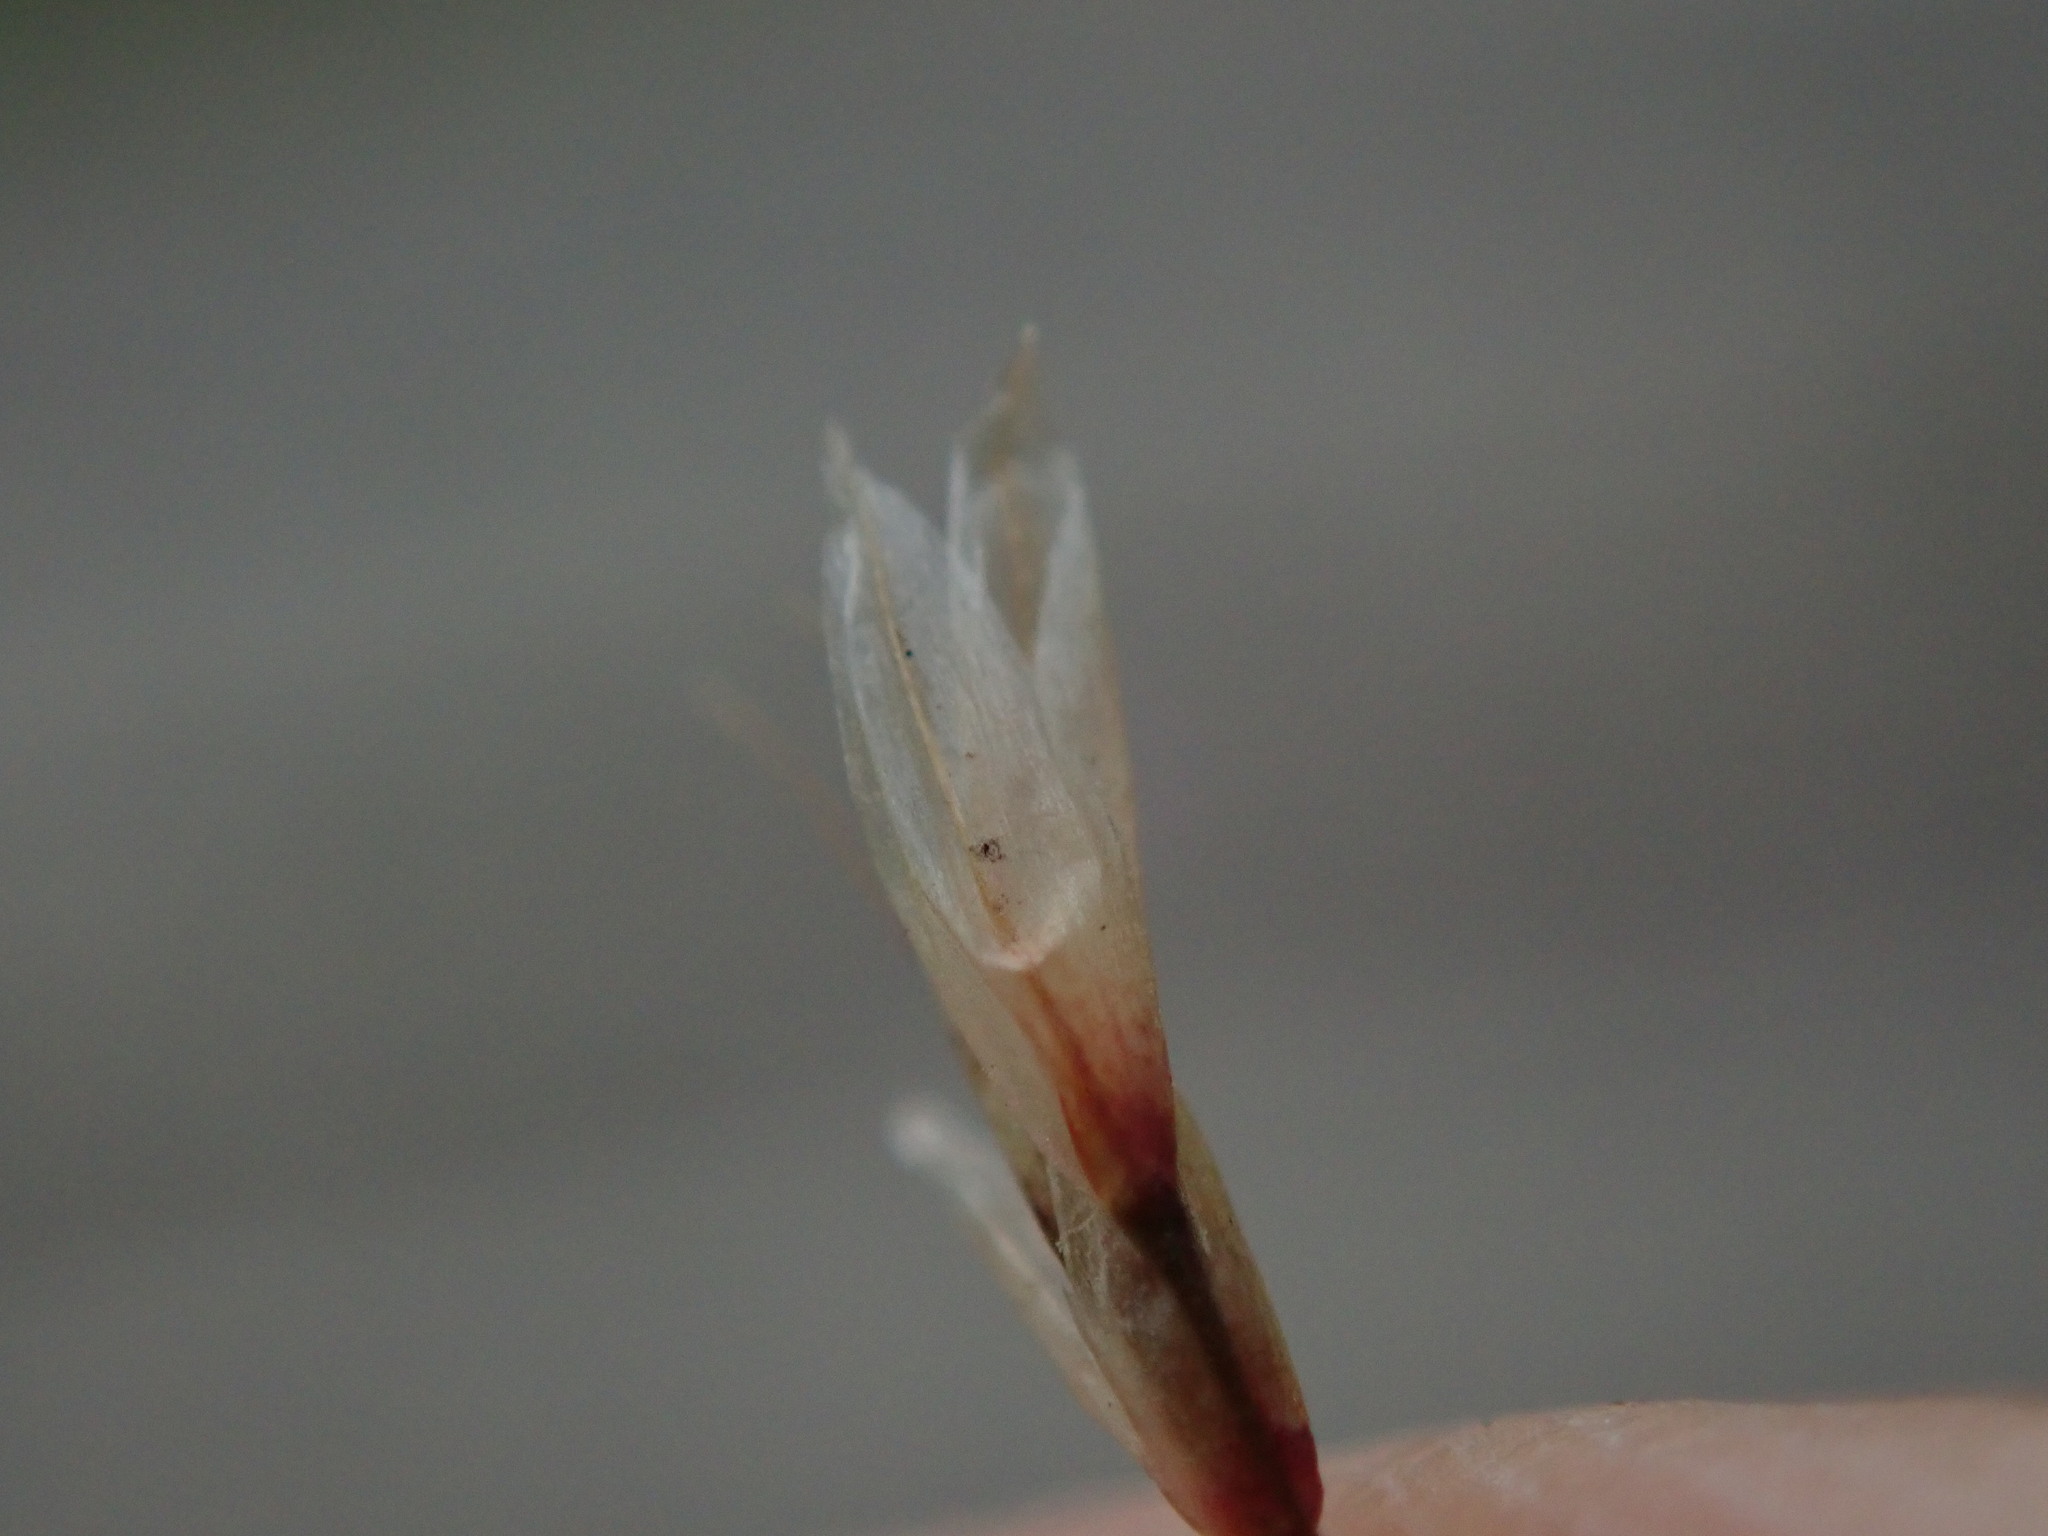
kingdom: Plantae
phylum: Tracheophyta
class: Liliopsida
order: Poales
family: Poaceae
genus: Avenella
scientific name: Avenella flexuosa
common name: Wavy hairgrass
